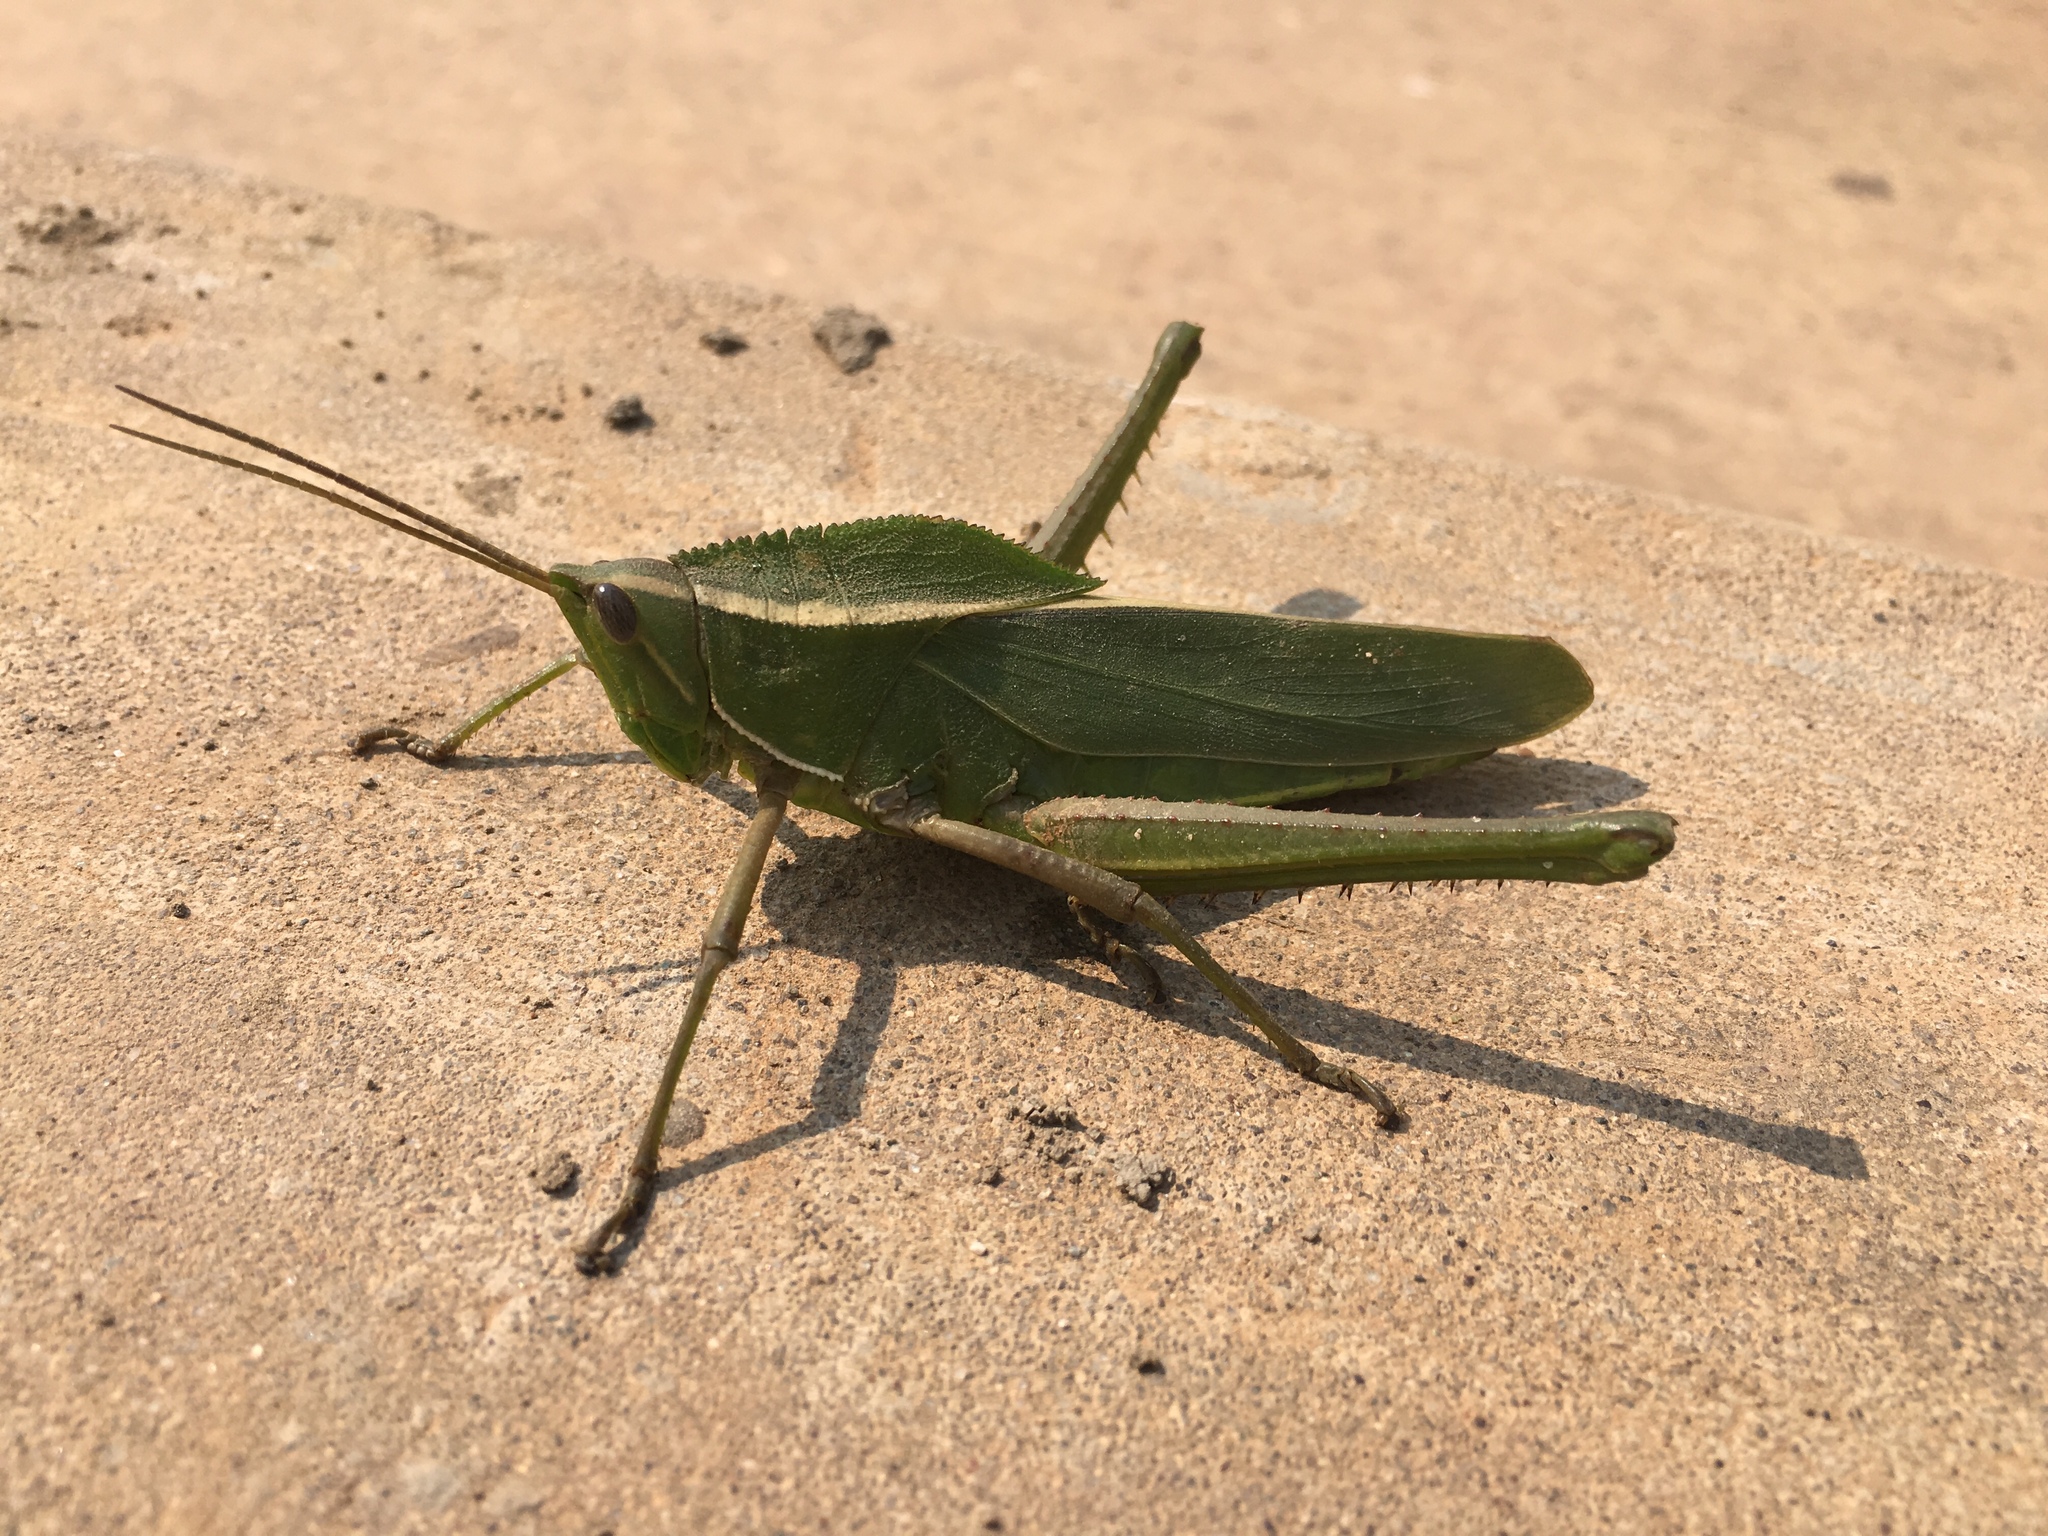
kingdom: Animalia
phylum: Arthropoda
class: Insecta
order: Orthoptera
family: Romaleidae
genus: Prionolopha
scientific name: Prionolopha serrata
